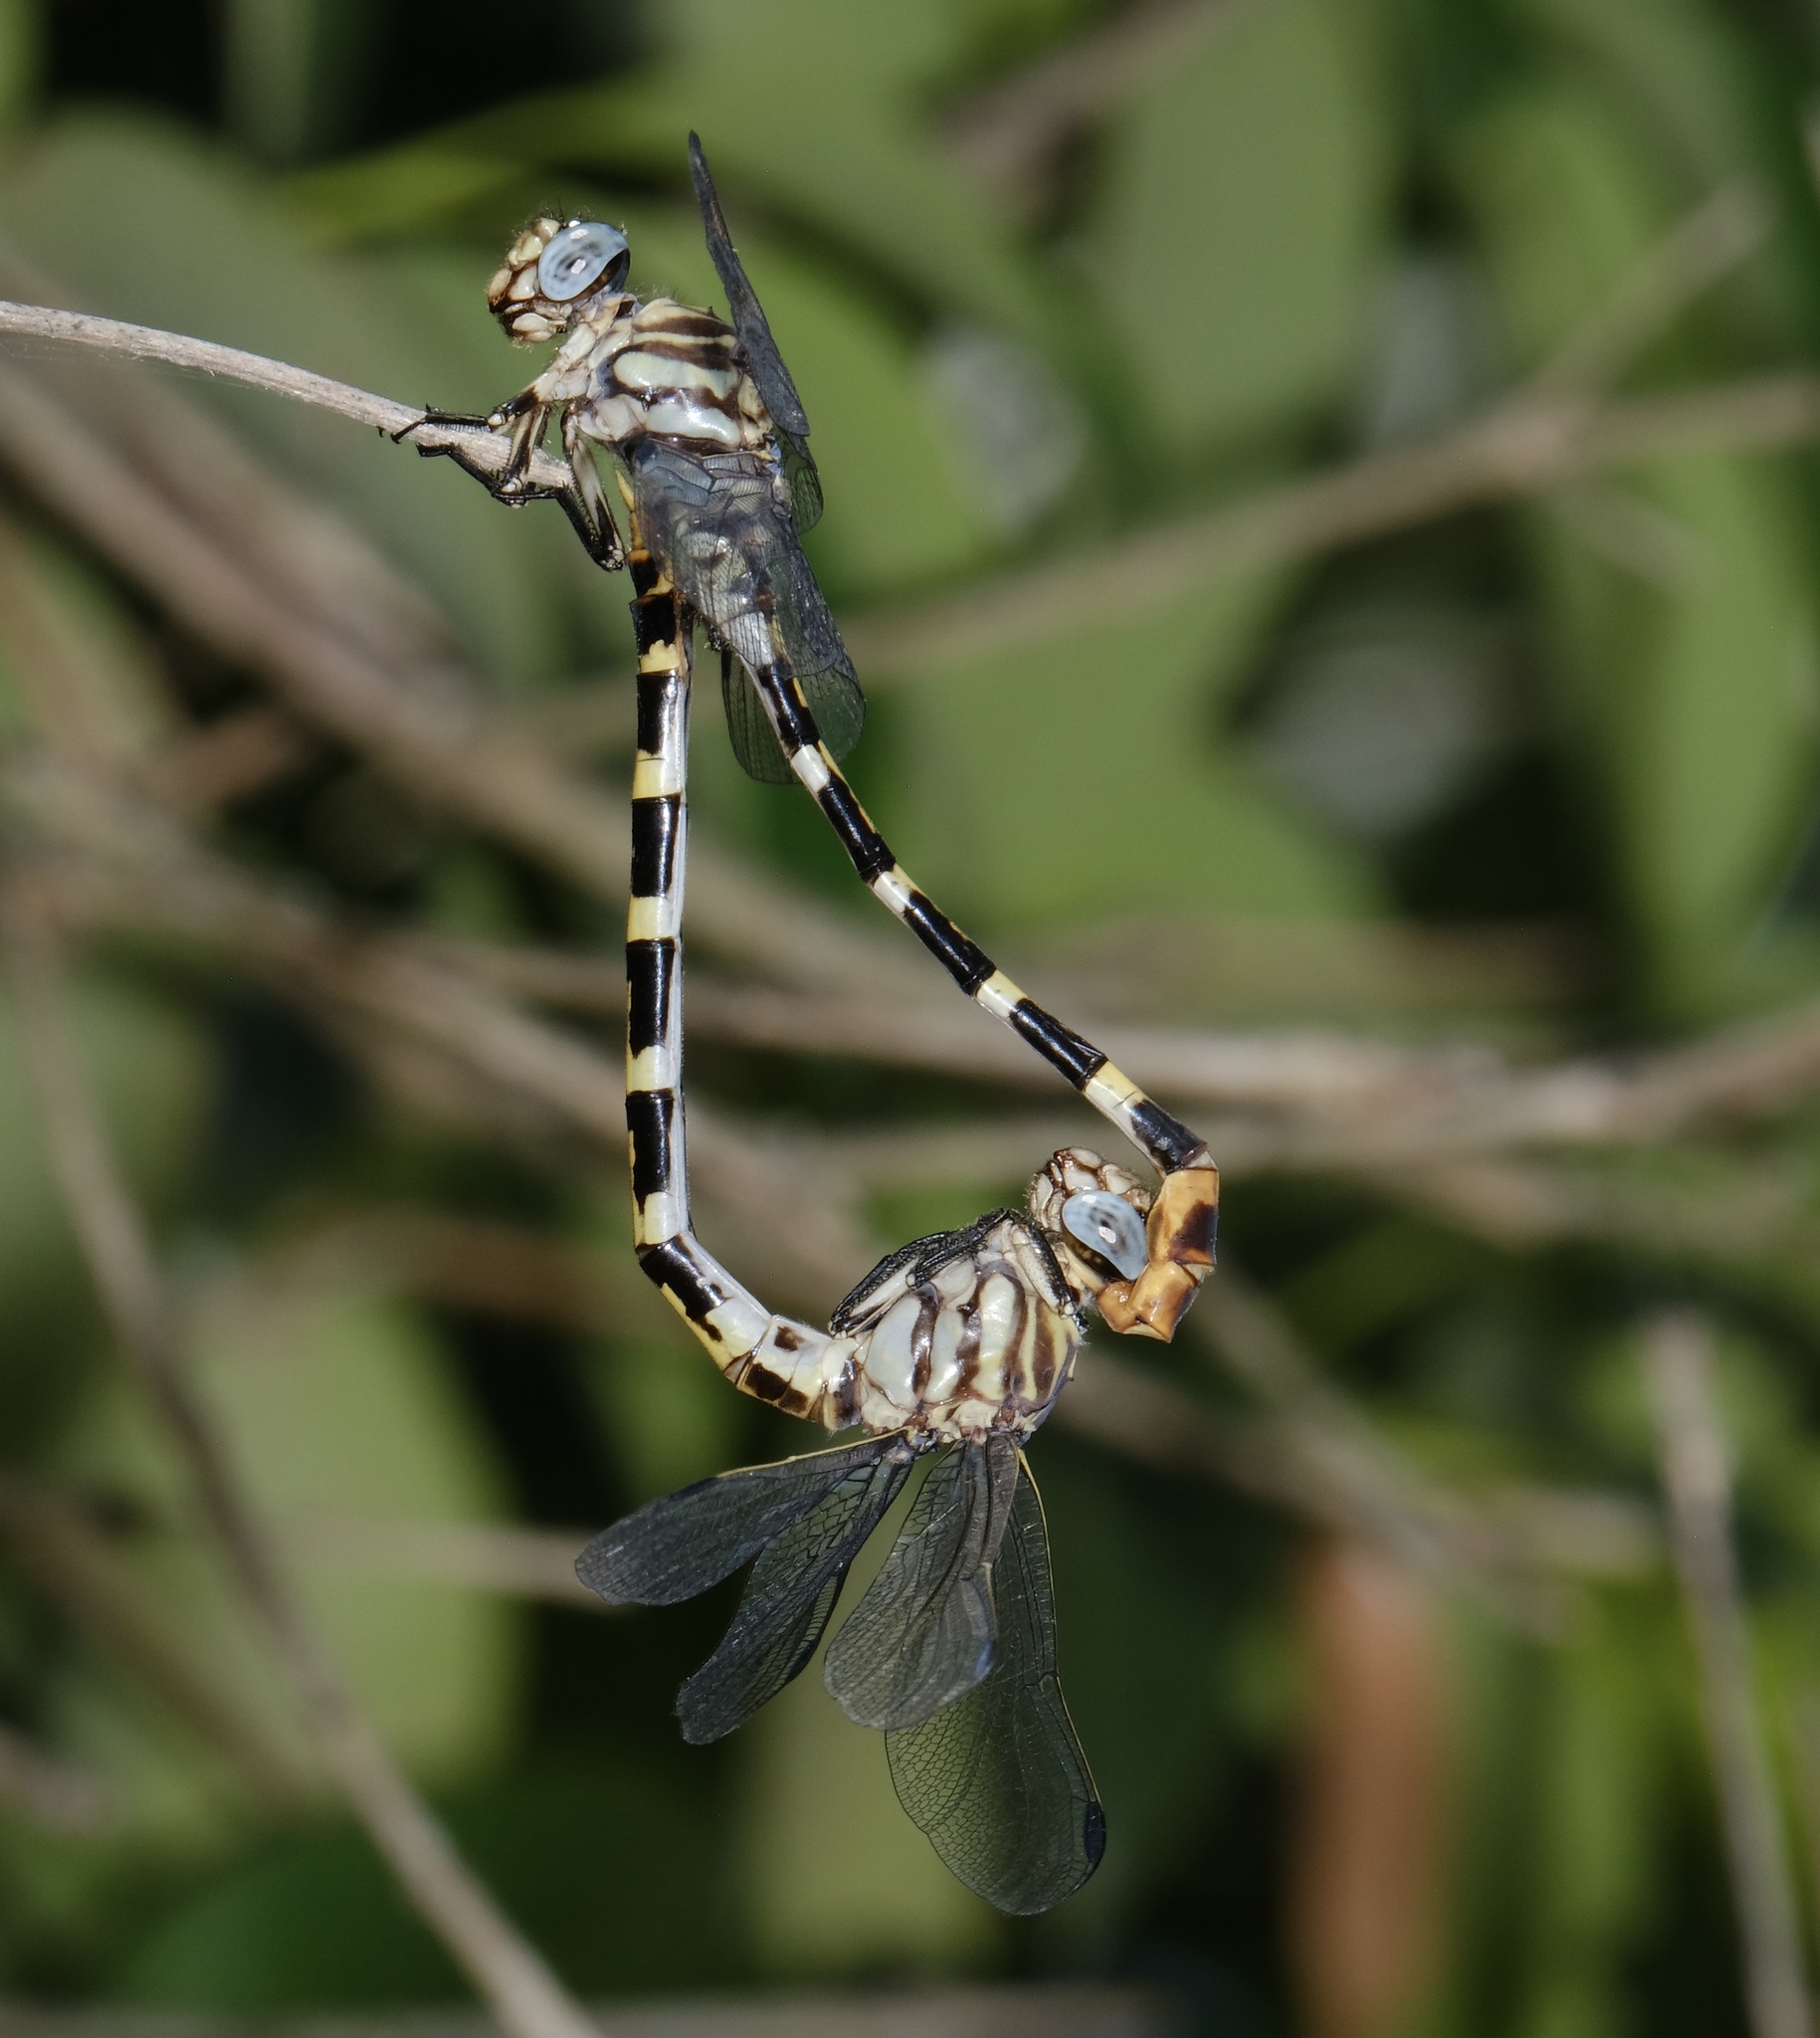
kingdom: Animalia
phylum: Arthropoda
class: Insecta
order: Odonata
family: Gomphidae
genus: Phyllogomphoides
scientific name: Phyllogomphoides stigmatus
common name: Four-striped leaftail
